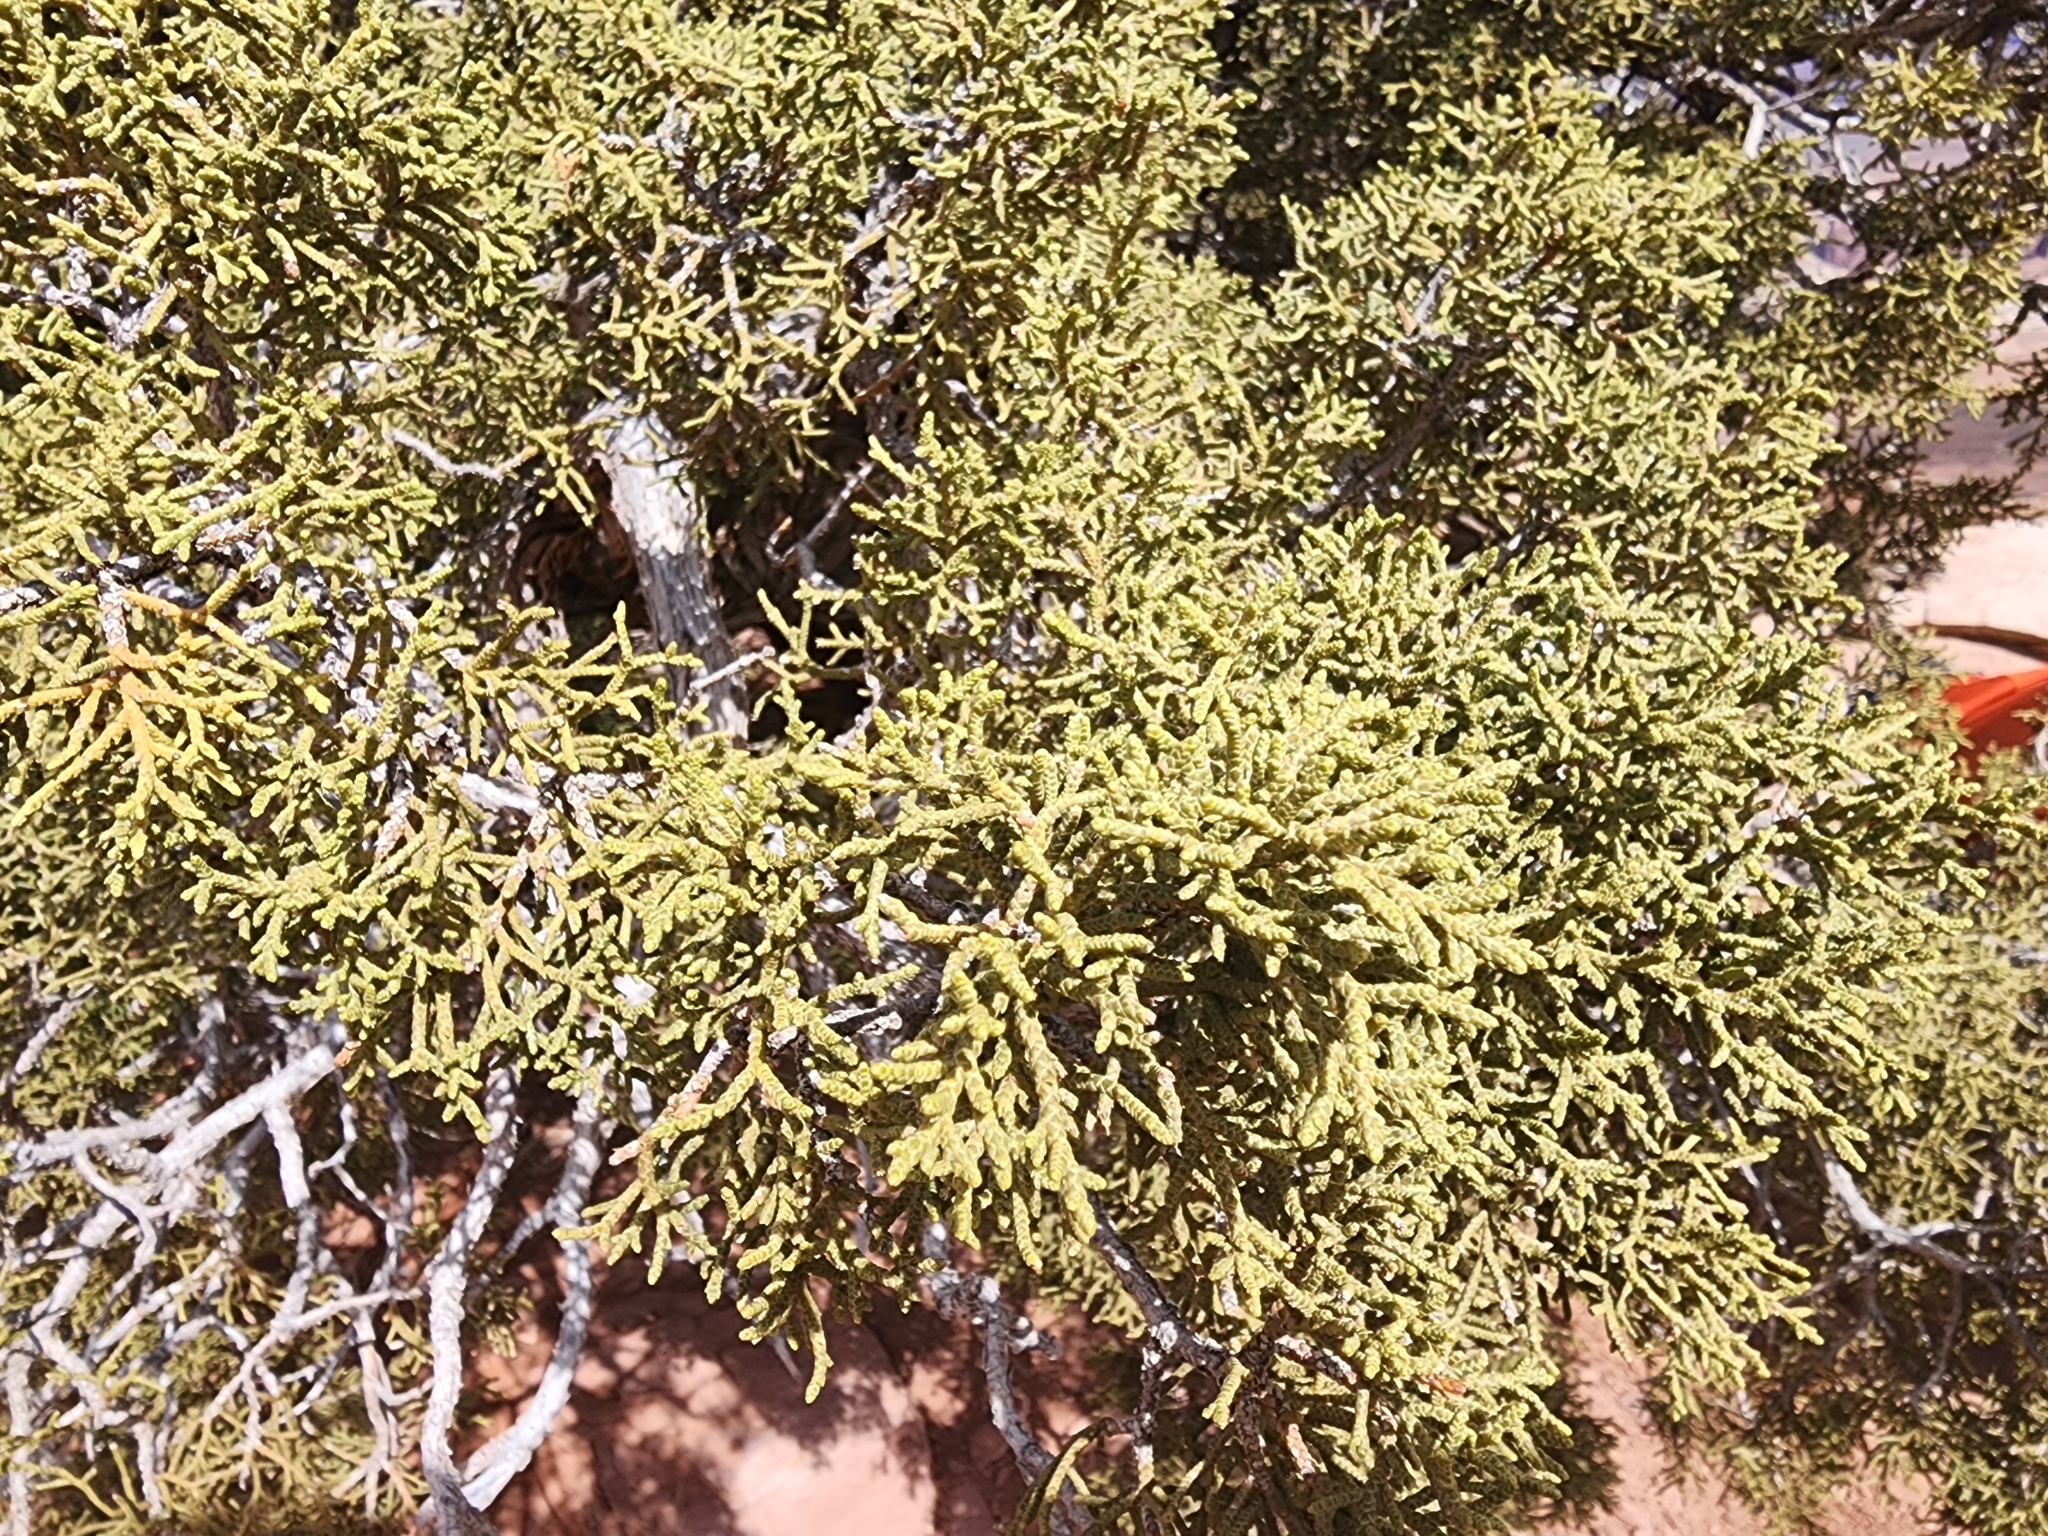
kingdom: Plantae
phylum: Tracheophyta
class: Pinopsida
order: Pinales
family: Cupressaceae
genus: Juniperus
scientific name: Juniperus osteosperma
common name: Utah juniper
